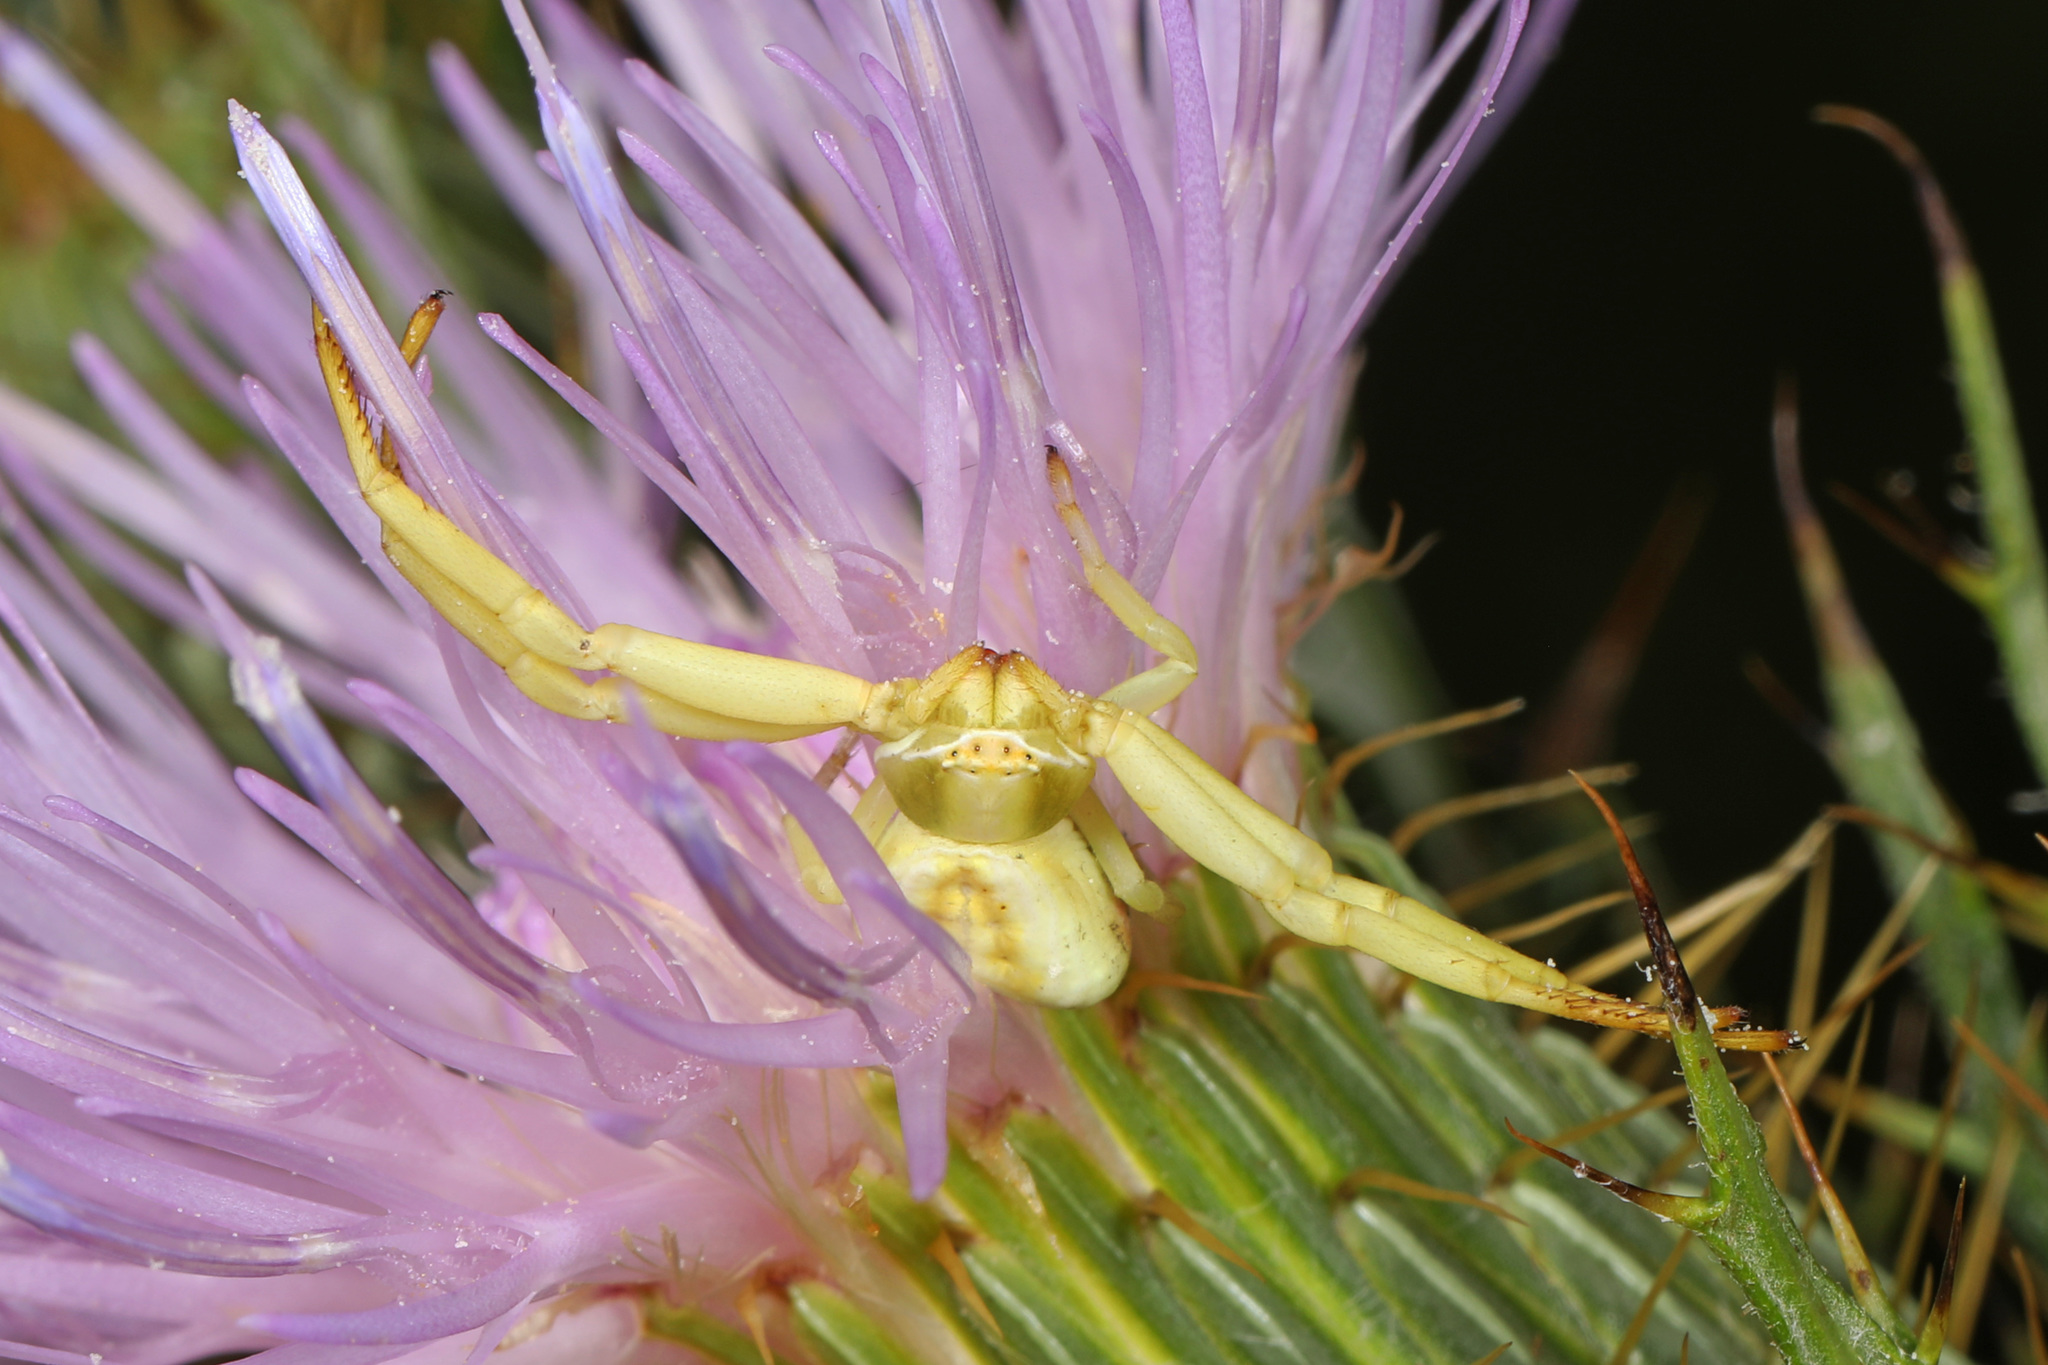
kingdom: Animalia
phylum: Arthropoda
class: Arachnida
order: Araneae
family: Thomisidae
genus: Misumenoides
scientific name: Misumenoides formosipes
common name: White-banded crab spider
